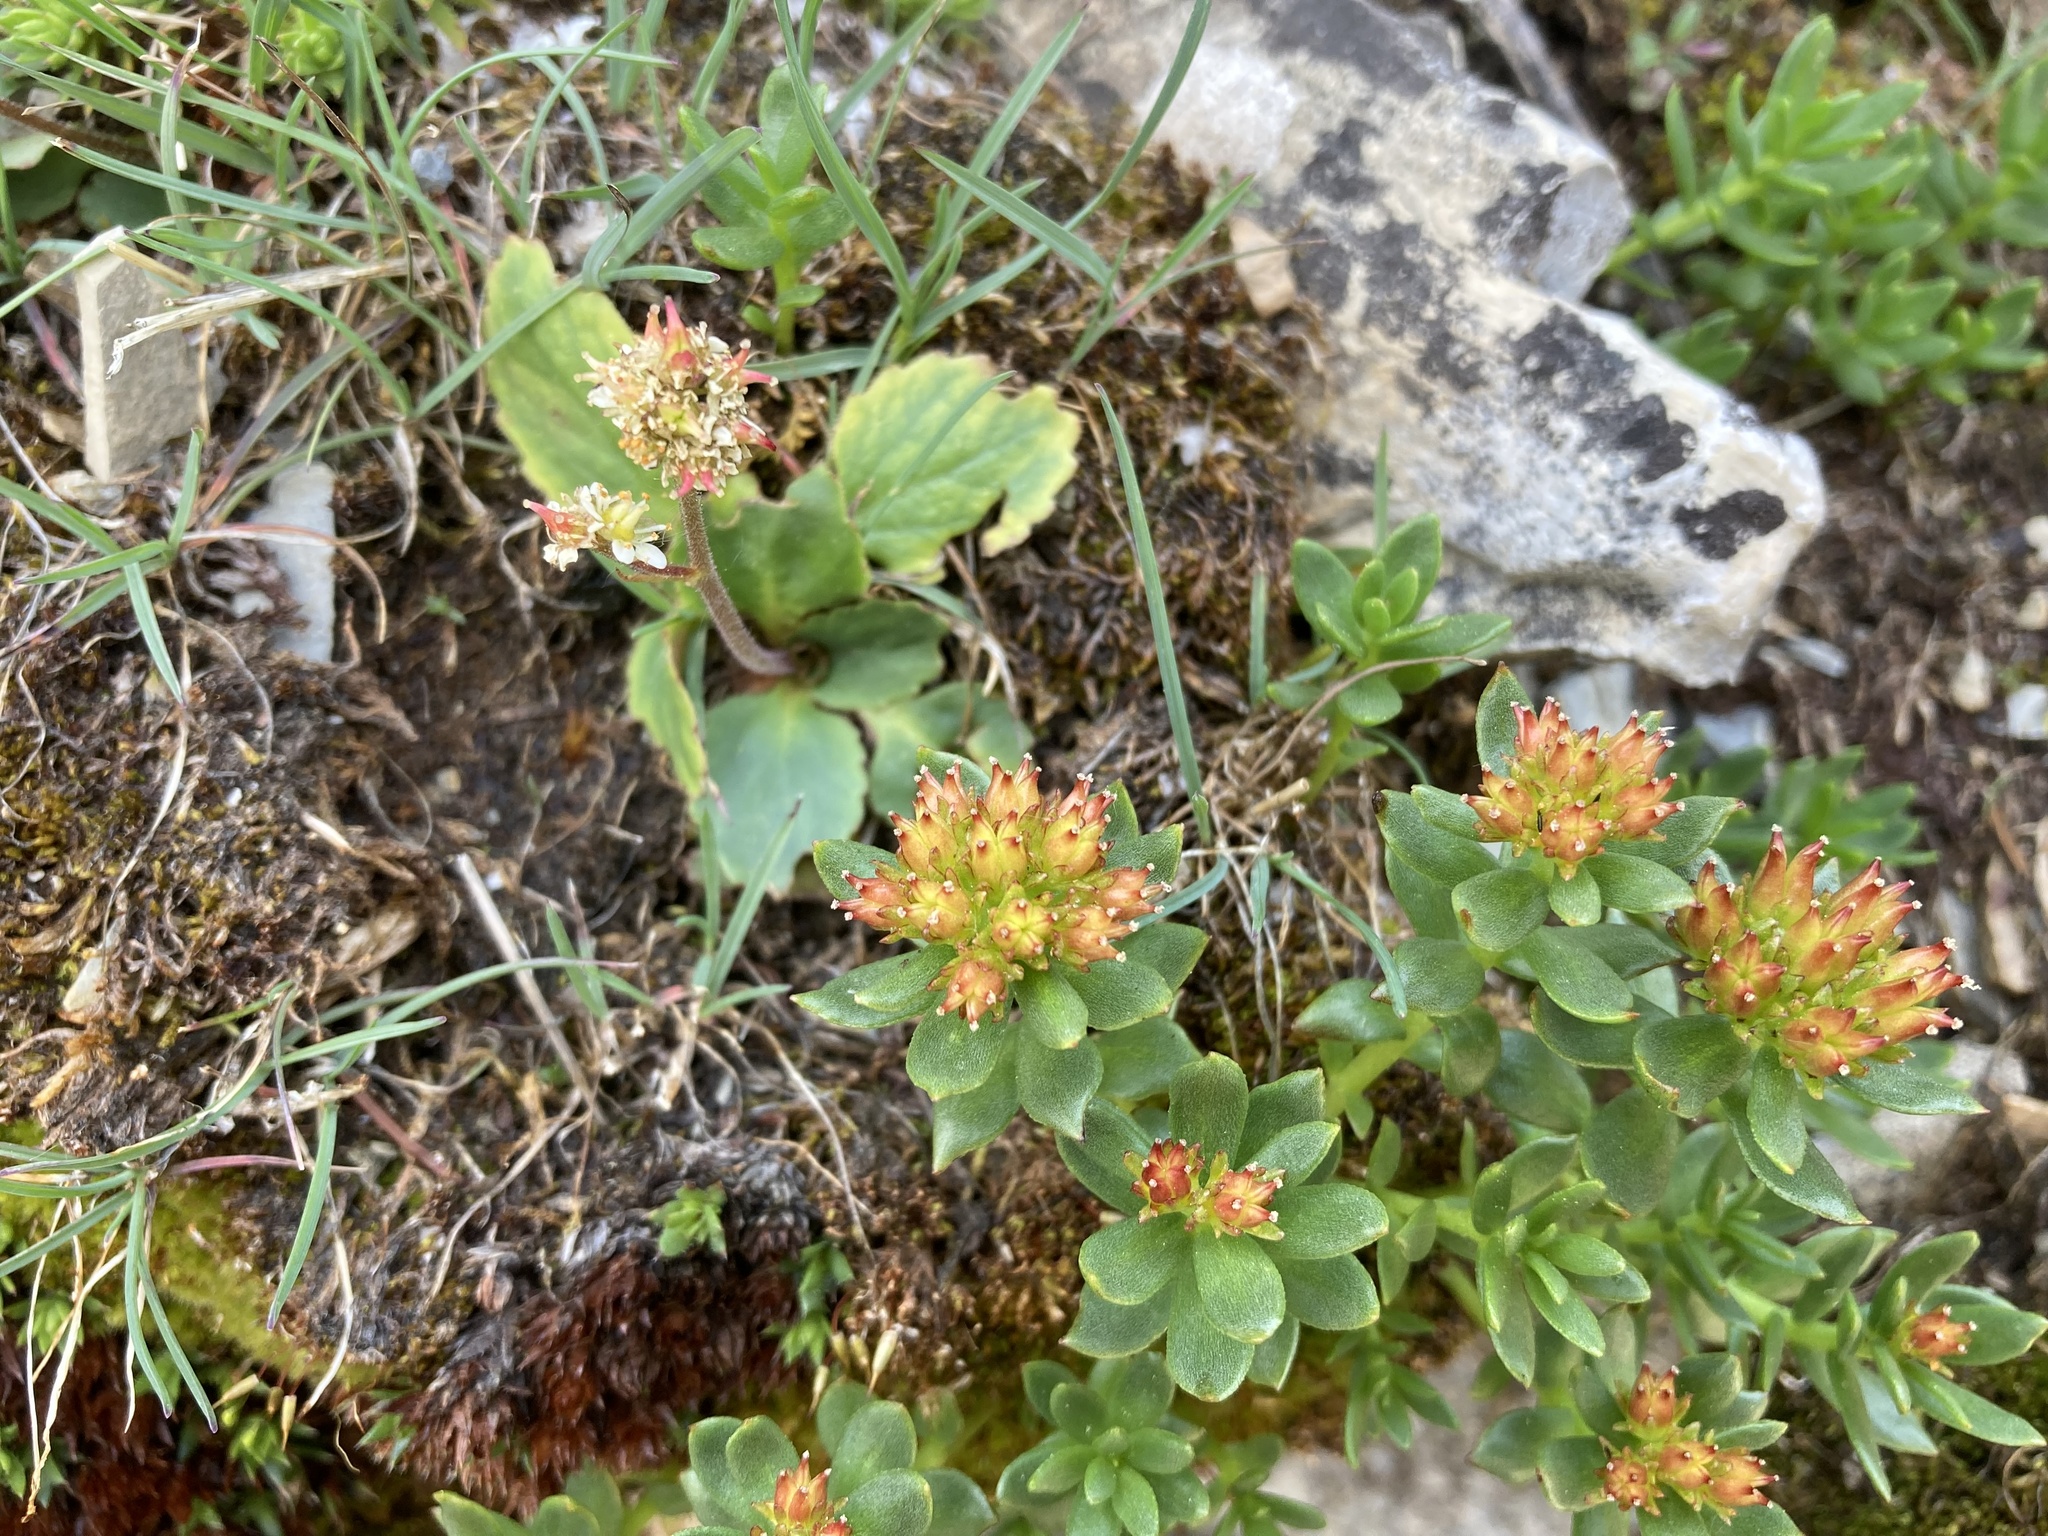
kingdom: Plantae
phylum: Tracheophyta
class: Magnoliopsida
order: Saxifragales
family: Crassulaceae
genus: Rhodiola
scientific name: Rhodiola integrifolia
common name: Western roseroot
